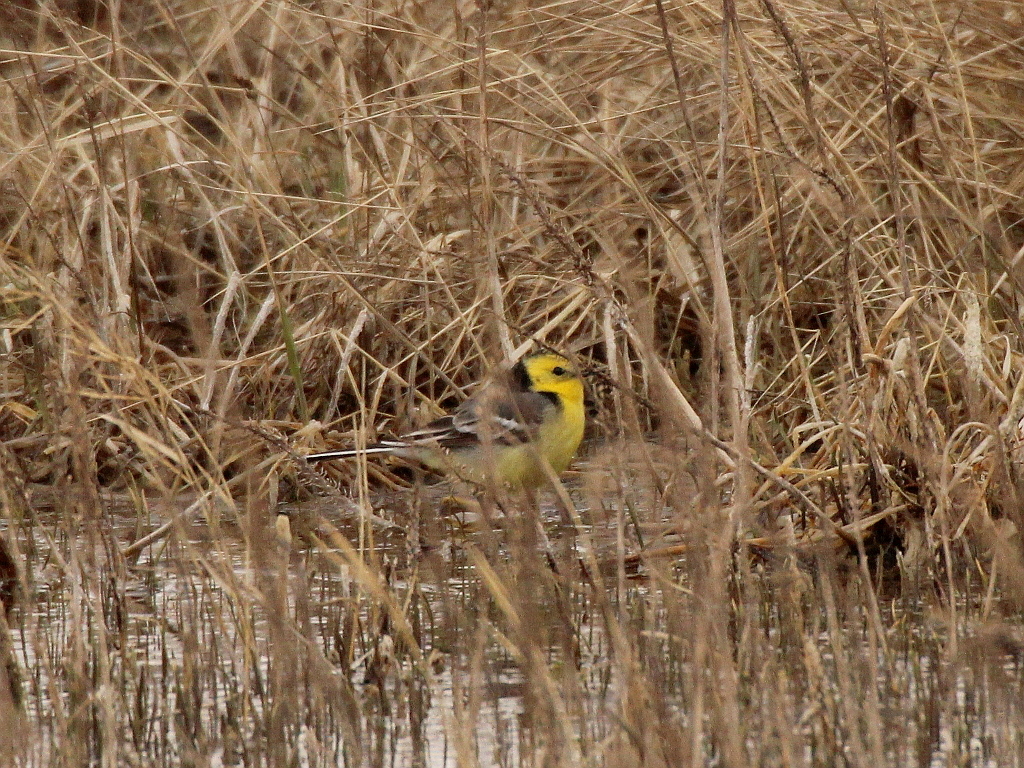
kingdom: Animalia
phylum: Chordata
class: Aves
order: Passeriformes
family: Motacillidae
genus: Motacilla
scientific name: Motacilla citreola
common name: Citrine wagtail
